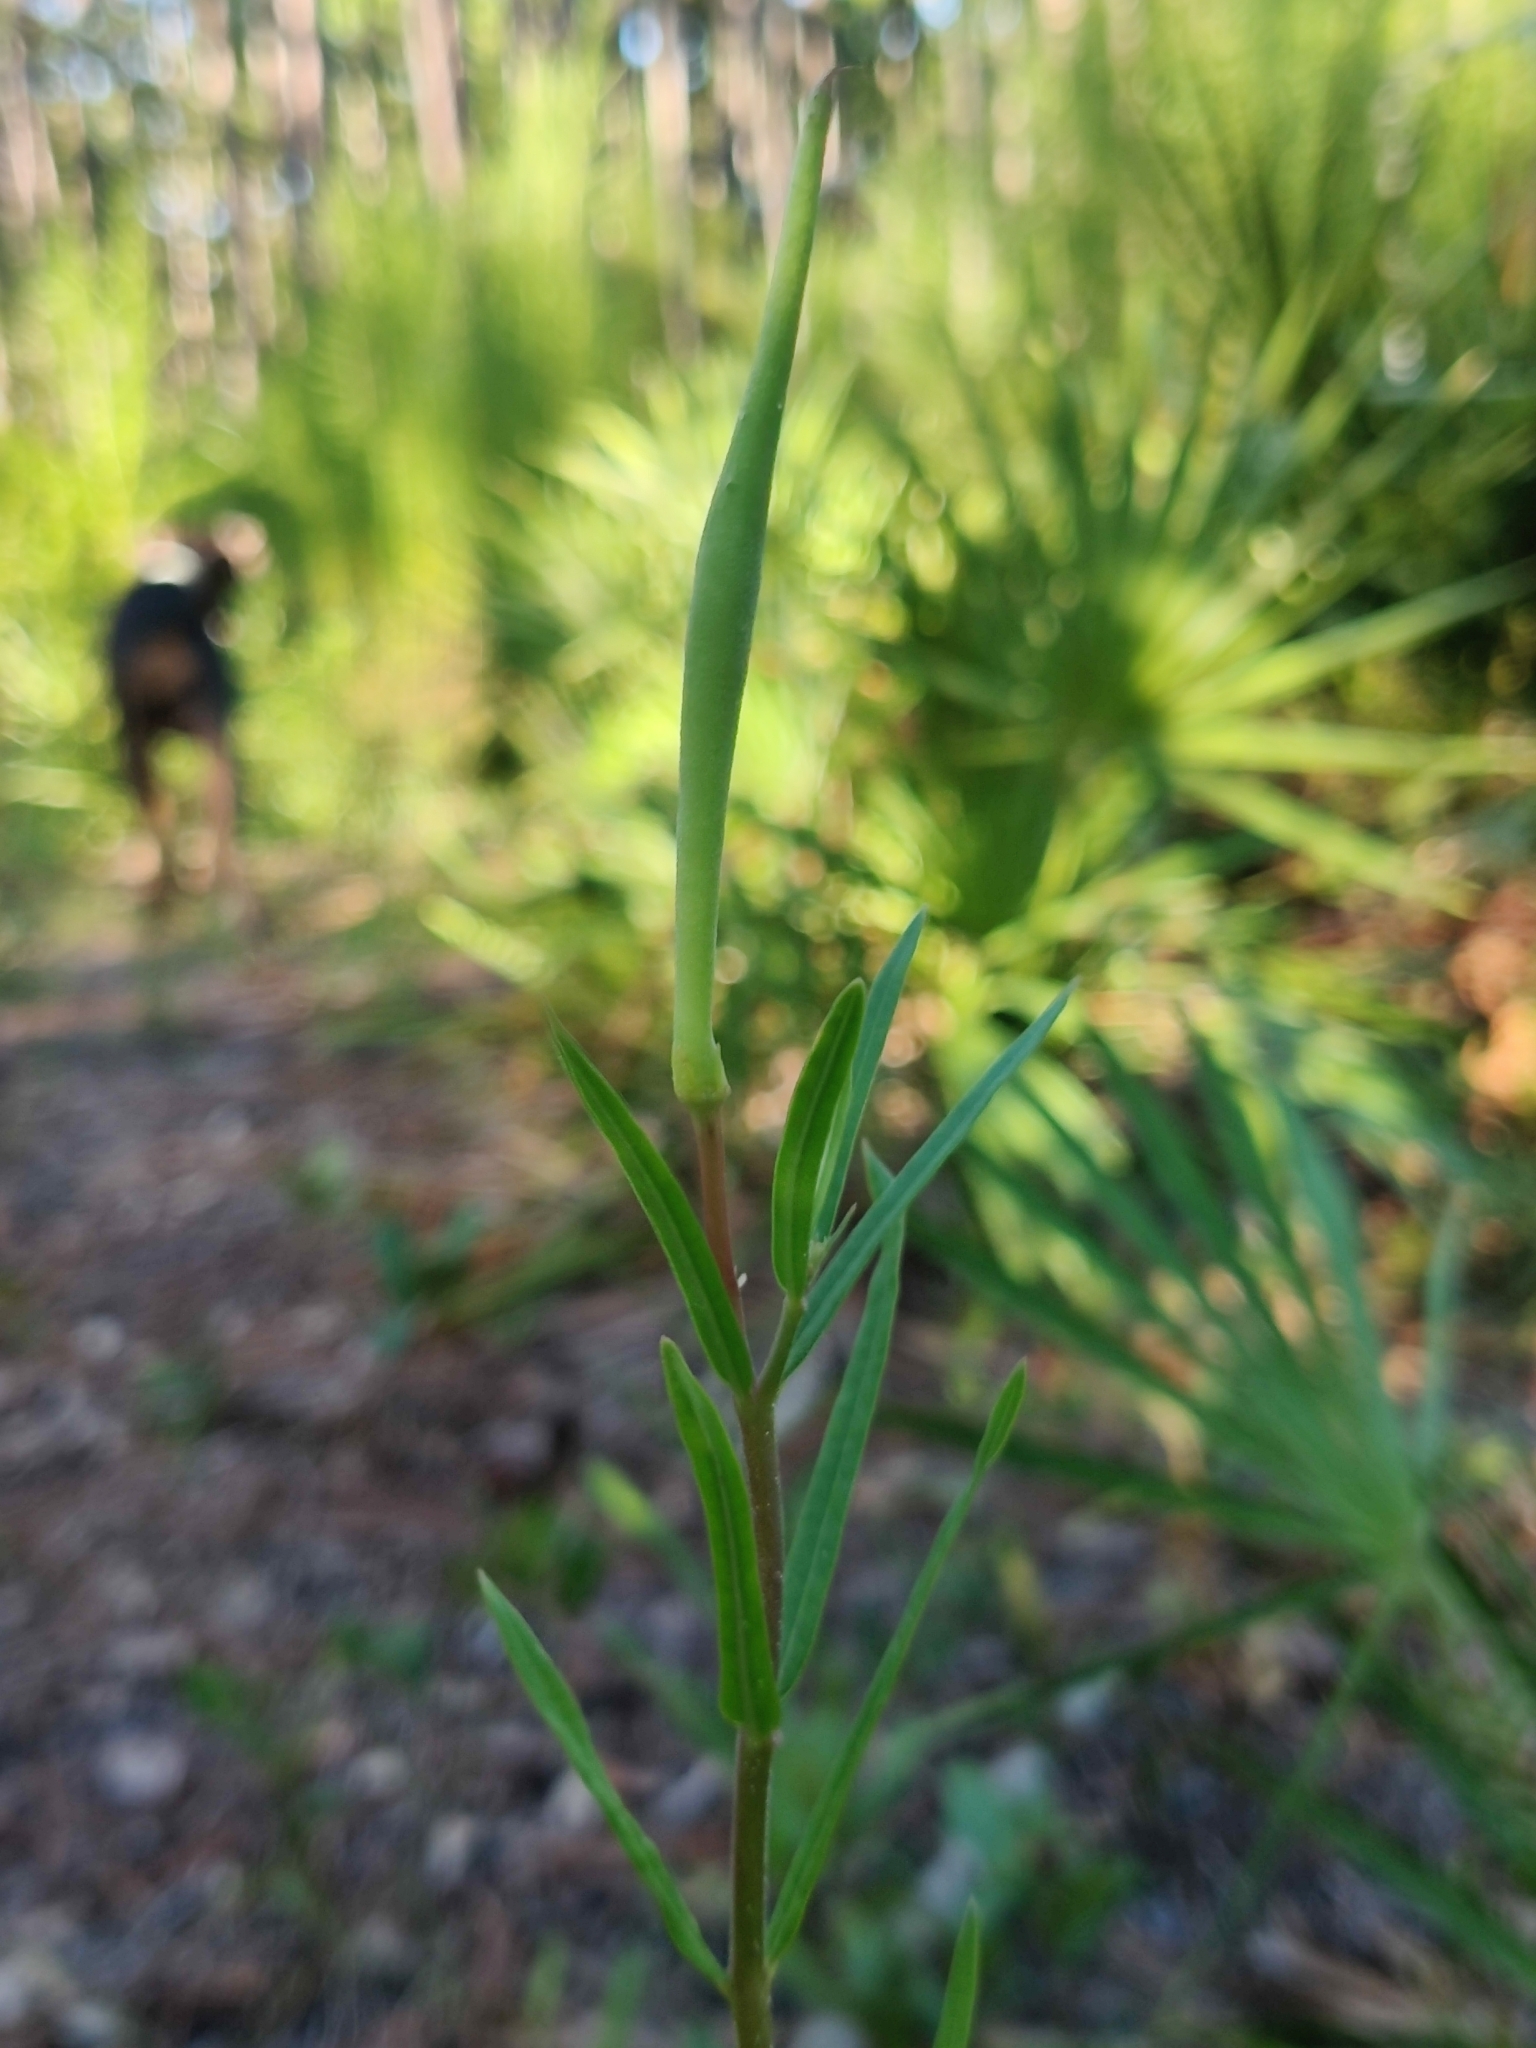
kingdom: Plantae
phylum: Tracheophyta
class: Magnoliopsida
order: Gentianales
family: Apocynaceae
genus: Asclepias
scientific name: Asclepias pedicellata
